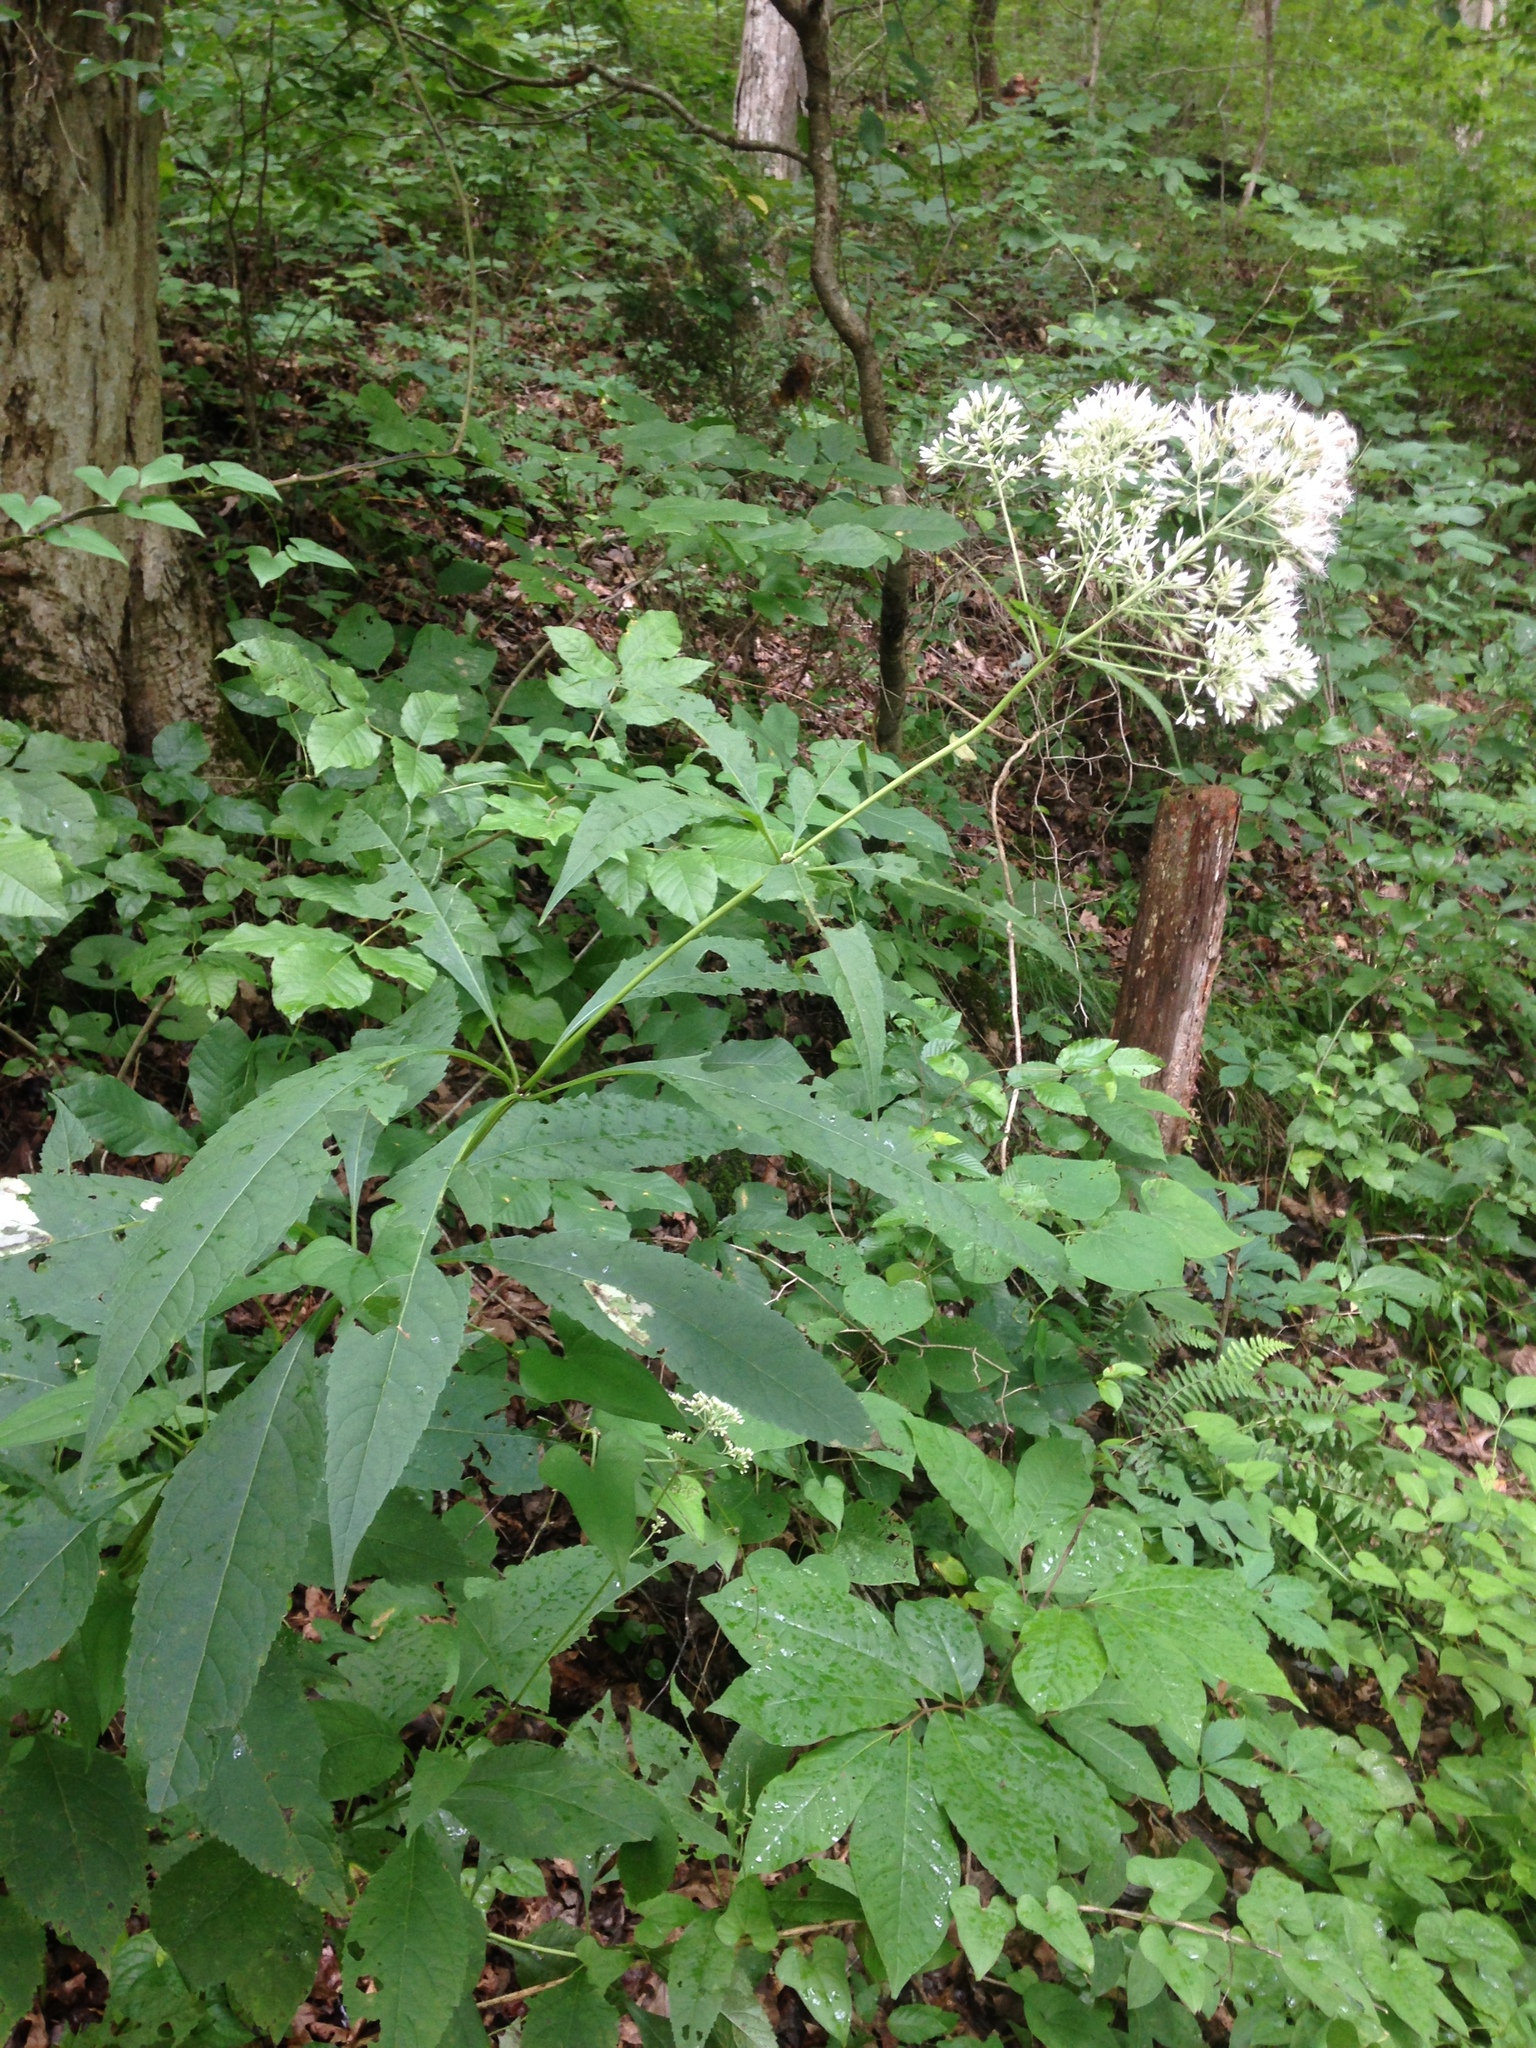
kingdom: Plantae
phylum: Tracheophyta
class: Magnoliopsida
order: Asterales
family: Asteraceae
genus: Eutrochium
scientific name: Eutrochium purpureum
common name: Gravelroot
